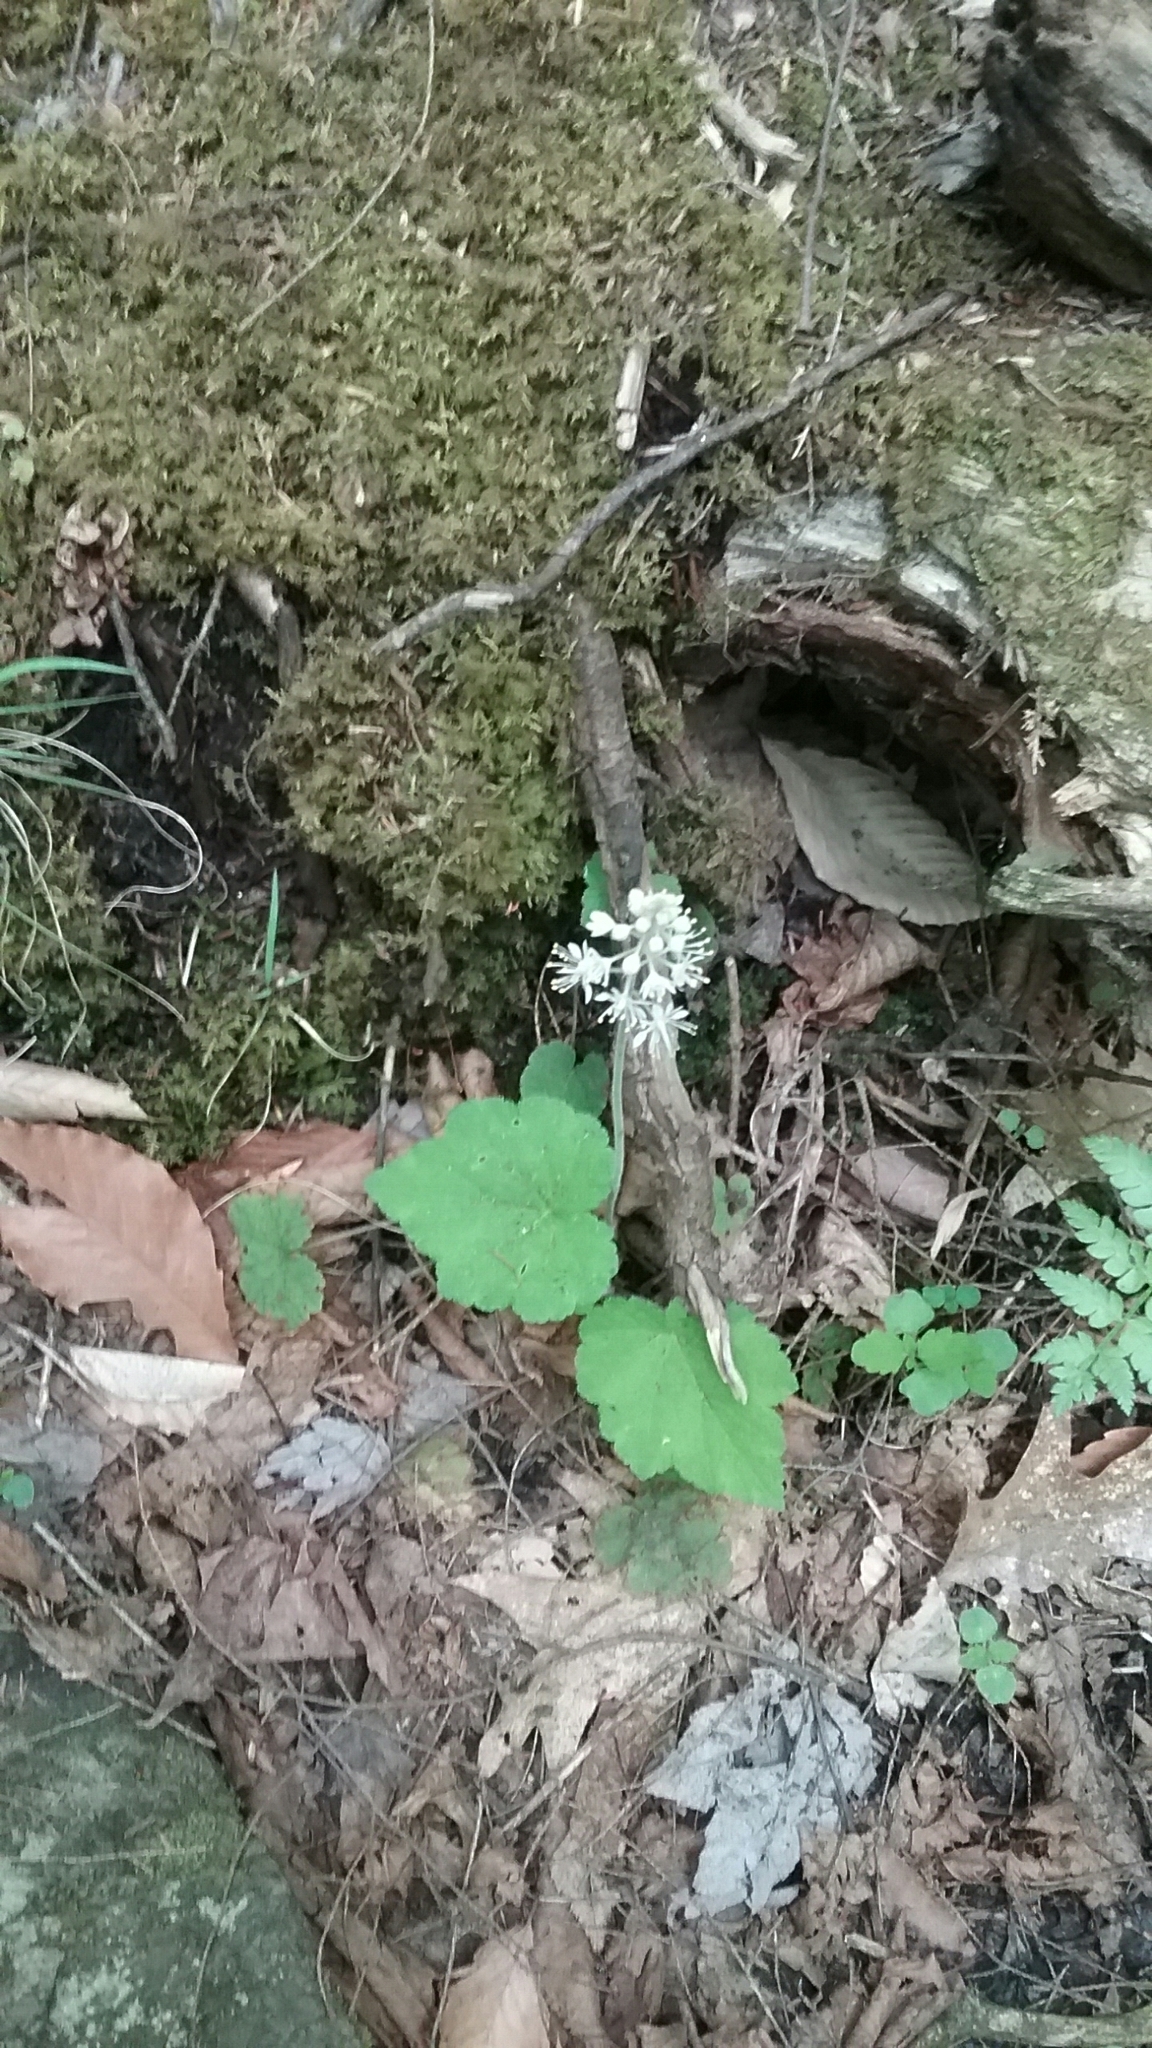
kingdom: Plantae
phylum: Tracheophyta
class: Magnoliopsida
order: Saxifragales
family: Saxifragaceae
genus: Tiarella
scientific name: Tiarella stolonifera
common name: Stoloniferous foamflower
